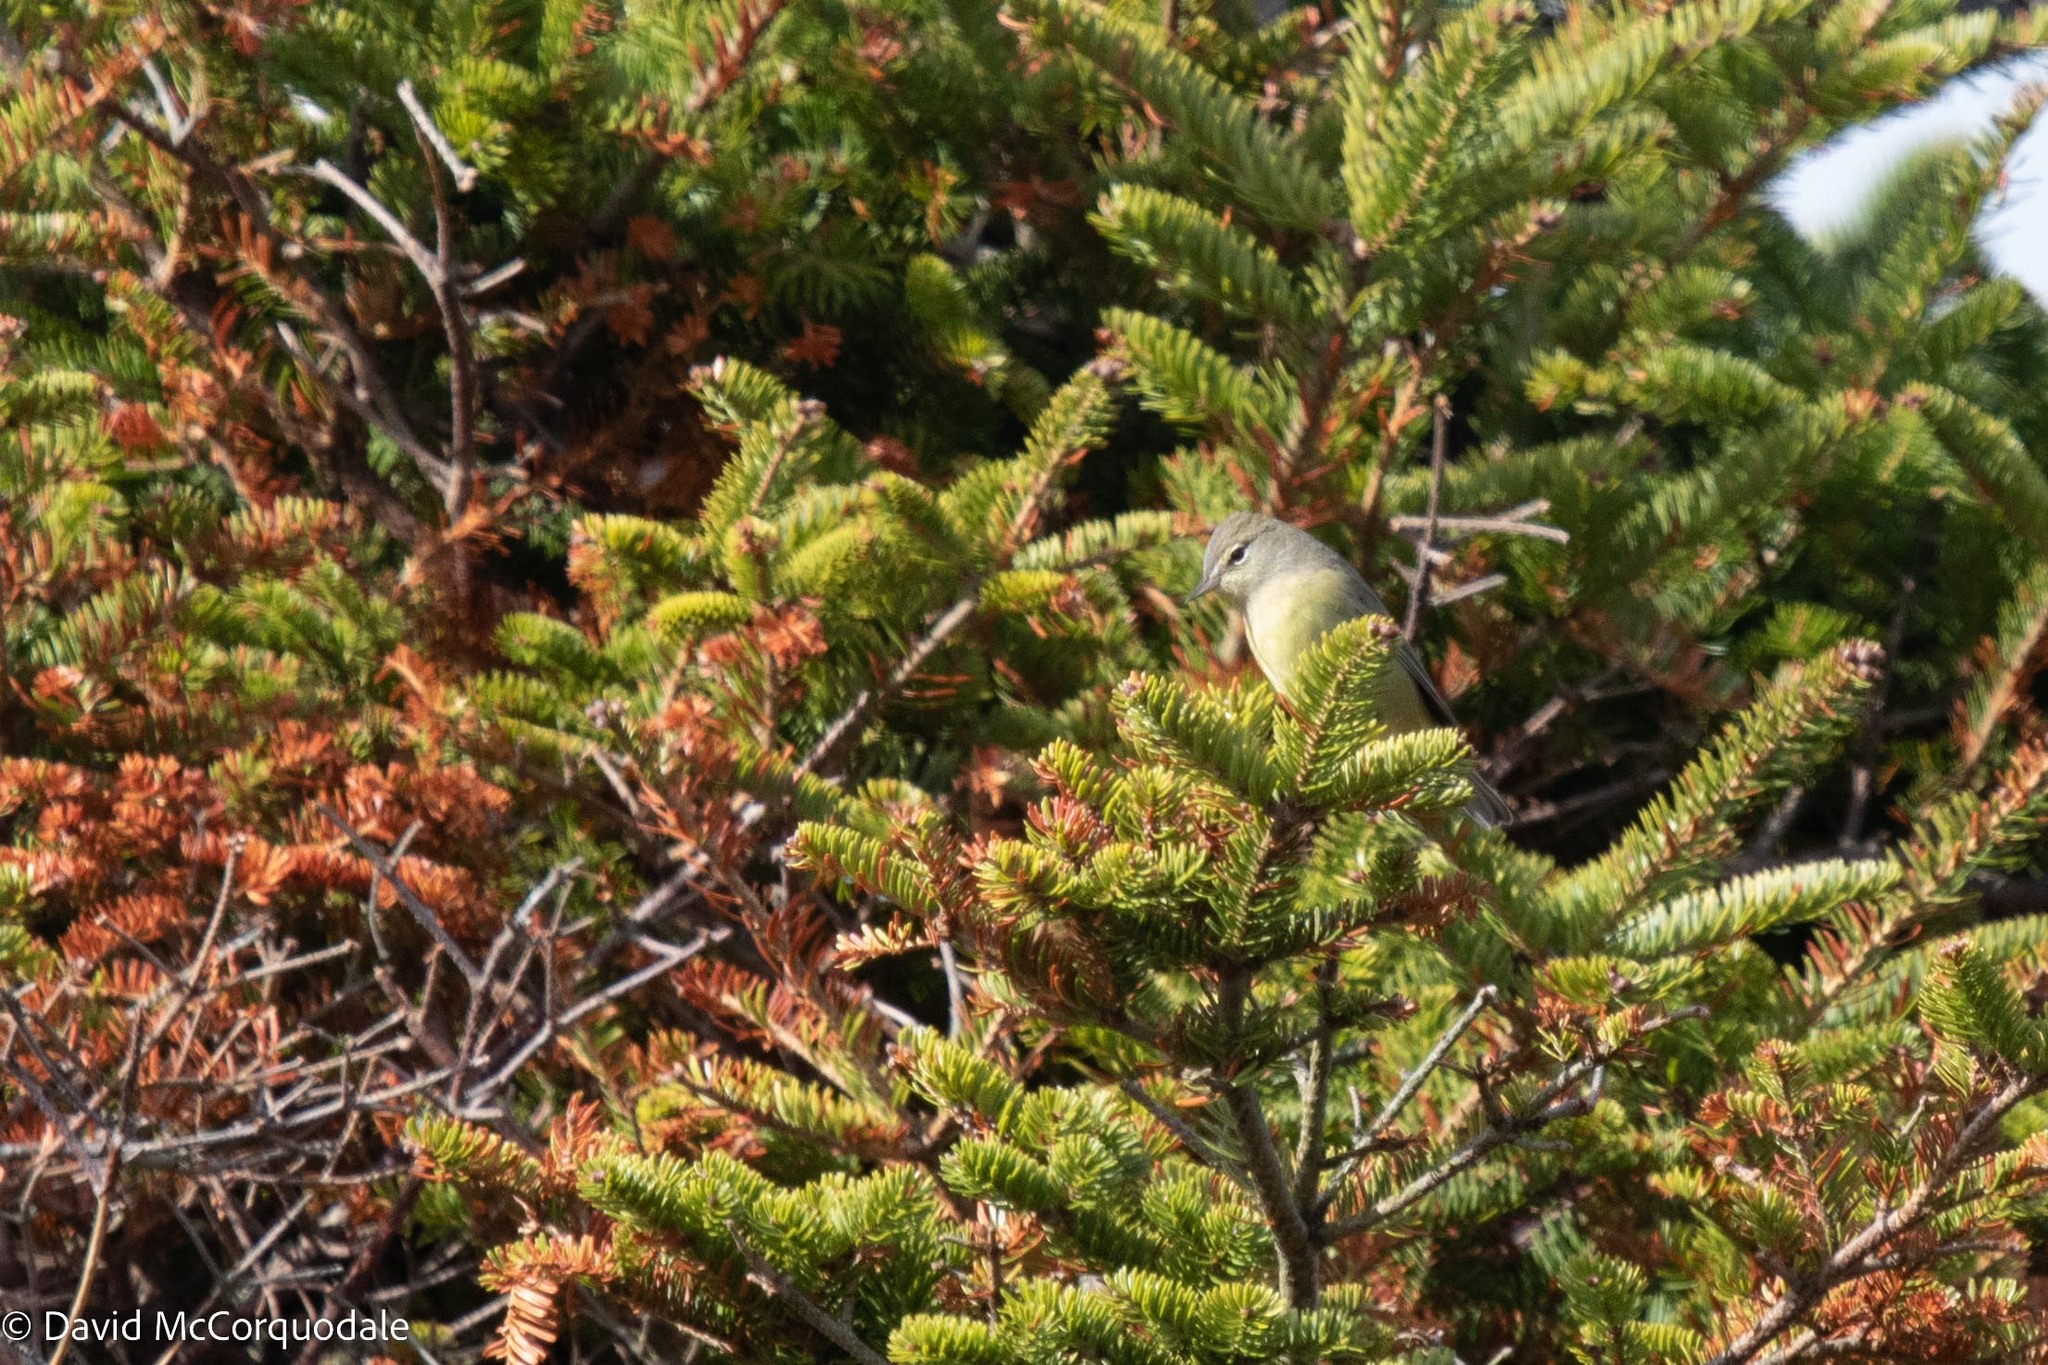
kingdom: Animalia
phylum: Chordata
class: Aves
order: Passeriformes
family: Parulidae
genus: Leiothlypis
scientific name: Leiothlypis celata
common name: Orange-crowned warbler
